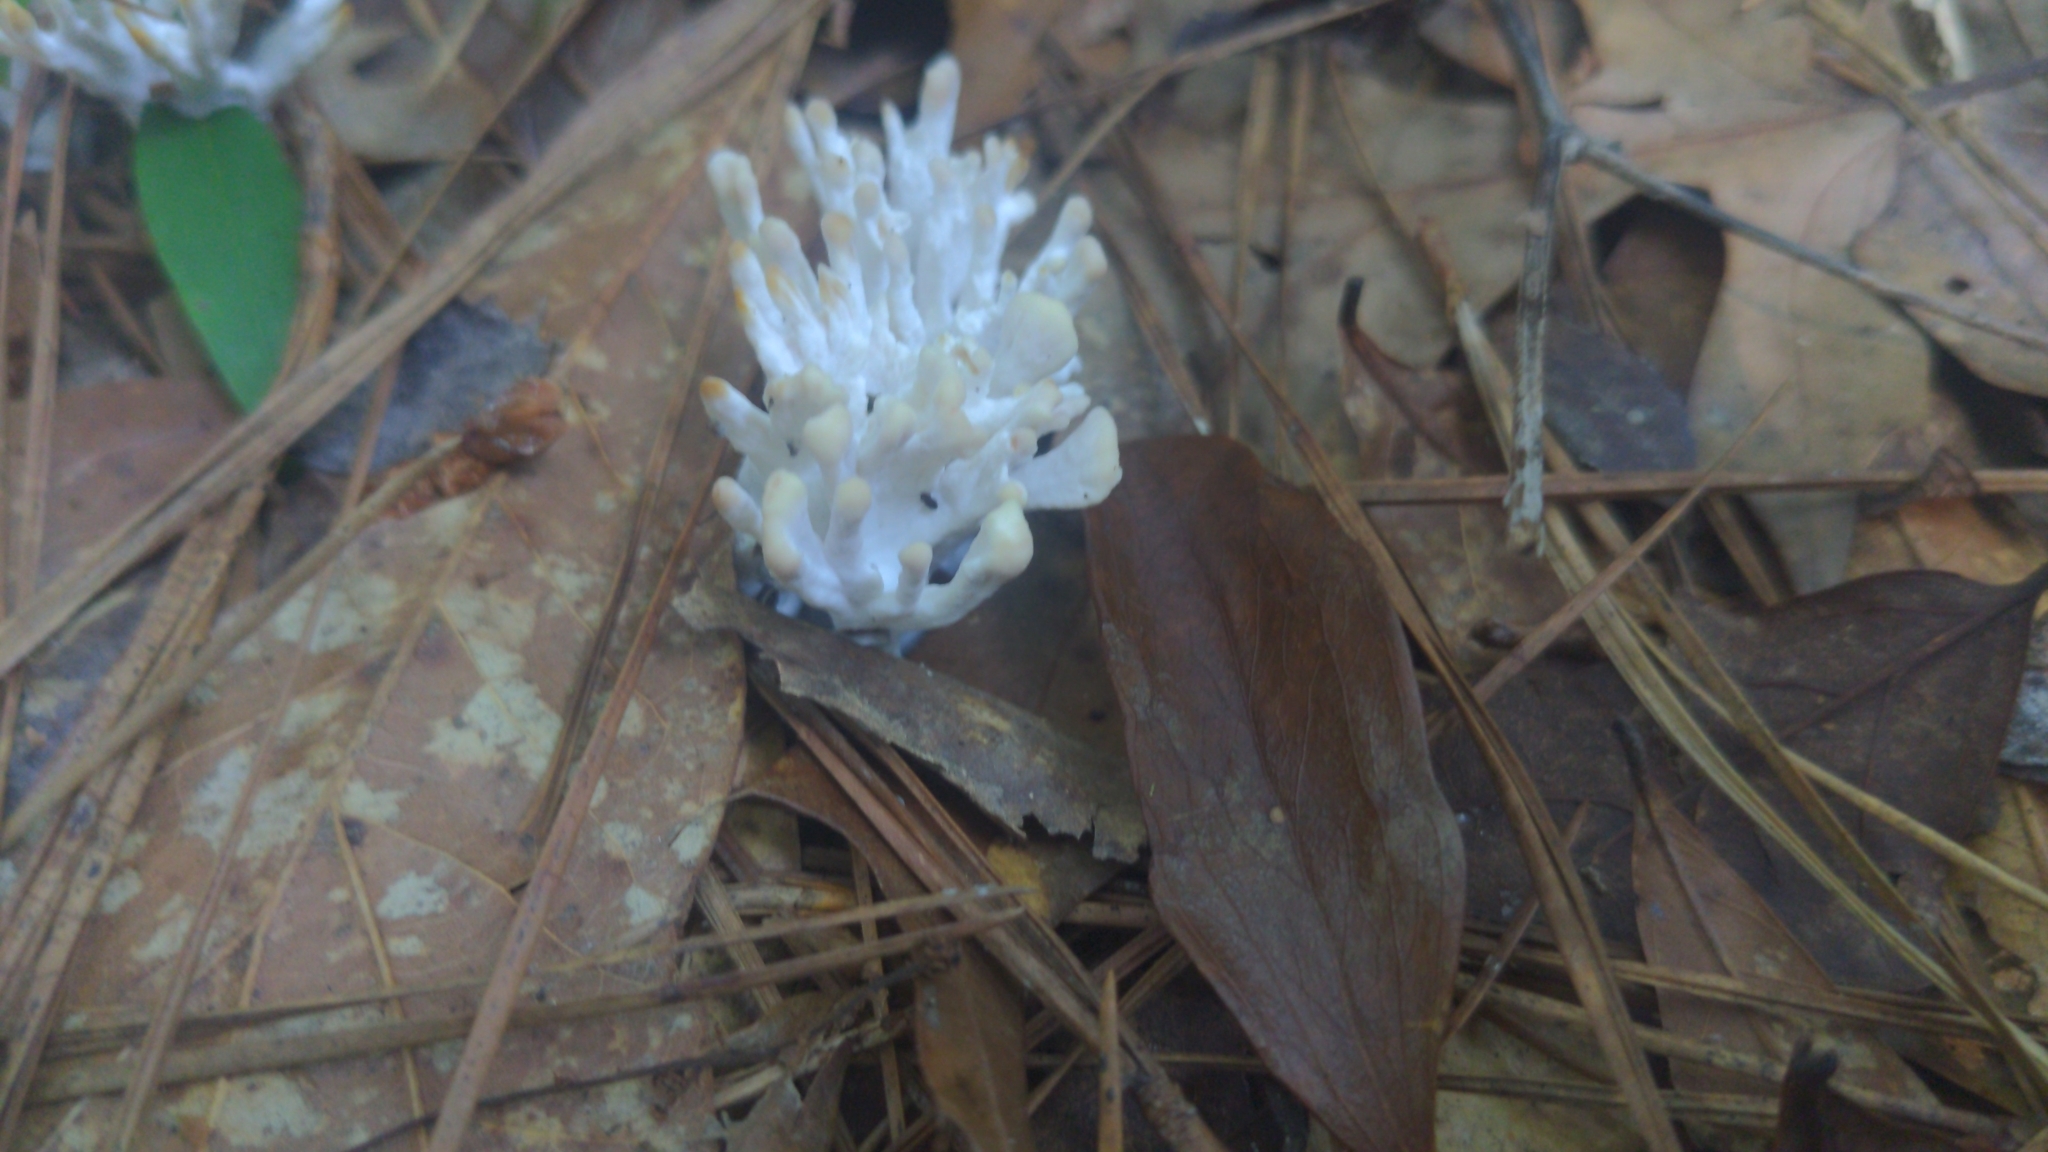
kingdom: Fungi
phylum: Basidiomycota
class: Agaricomycetes
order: Sebacinales
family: Sebacinaceae
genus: Sebacina
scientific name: Sebacina schweinitzii
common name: Jellied false coral fungus
